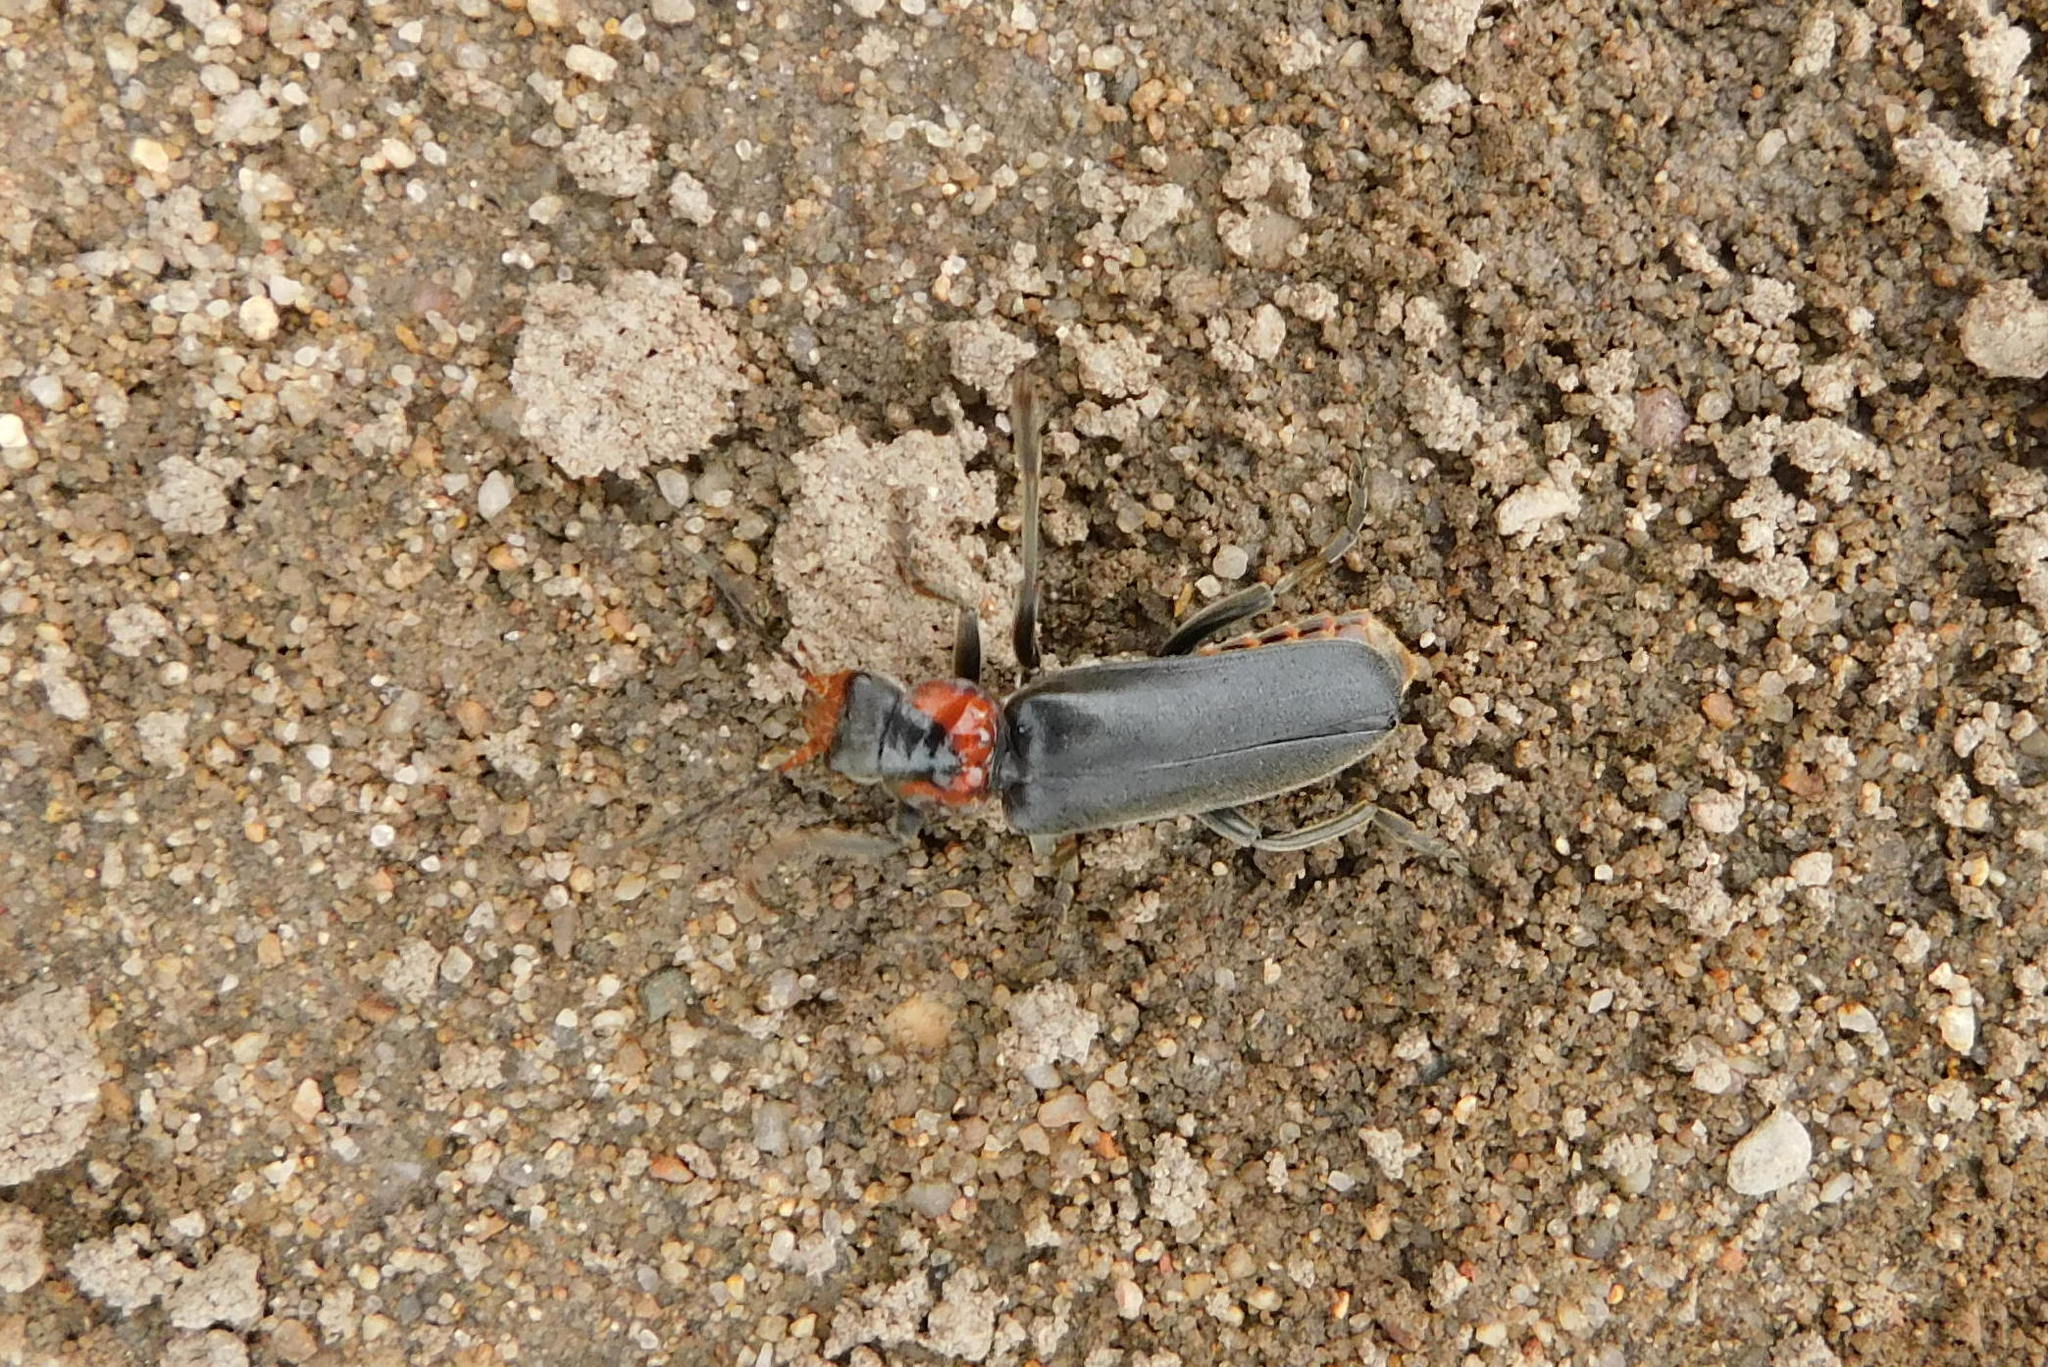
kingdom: Animalia
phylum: Arthropoda
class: Insecta
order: Coleoptera
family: Cantharidae
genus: Cantharis
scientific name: Cantharis fusca
